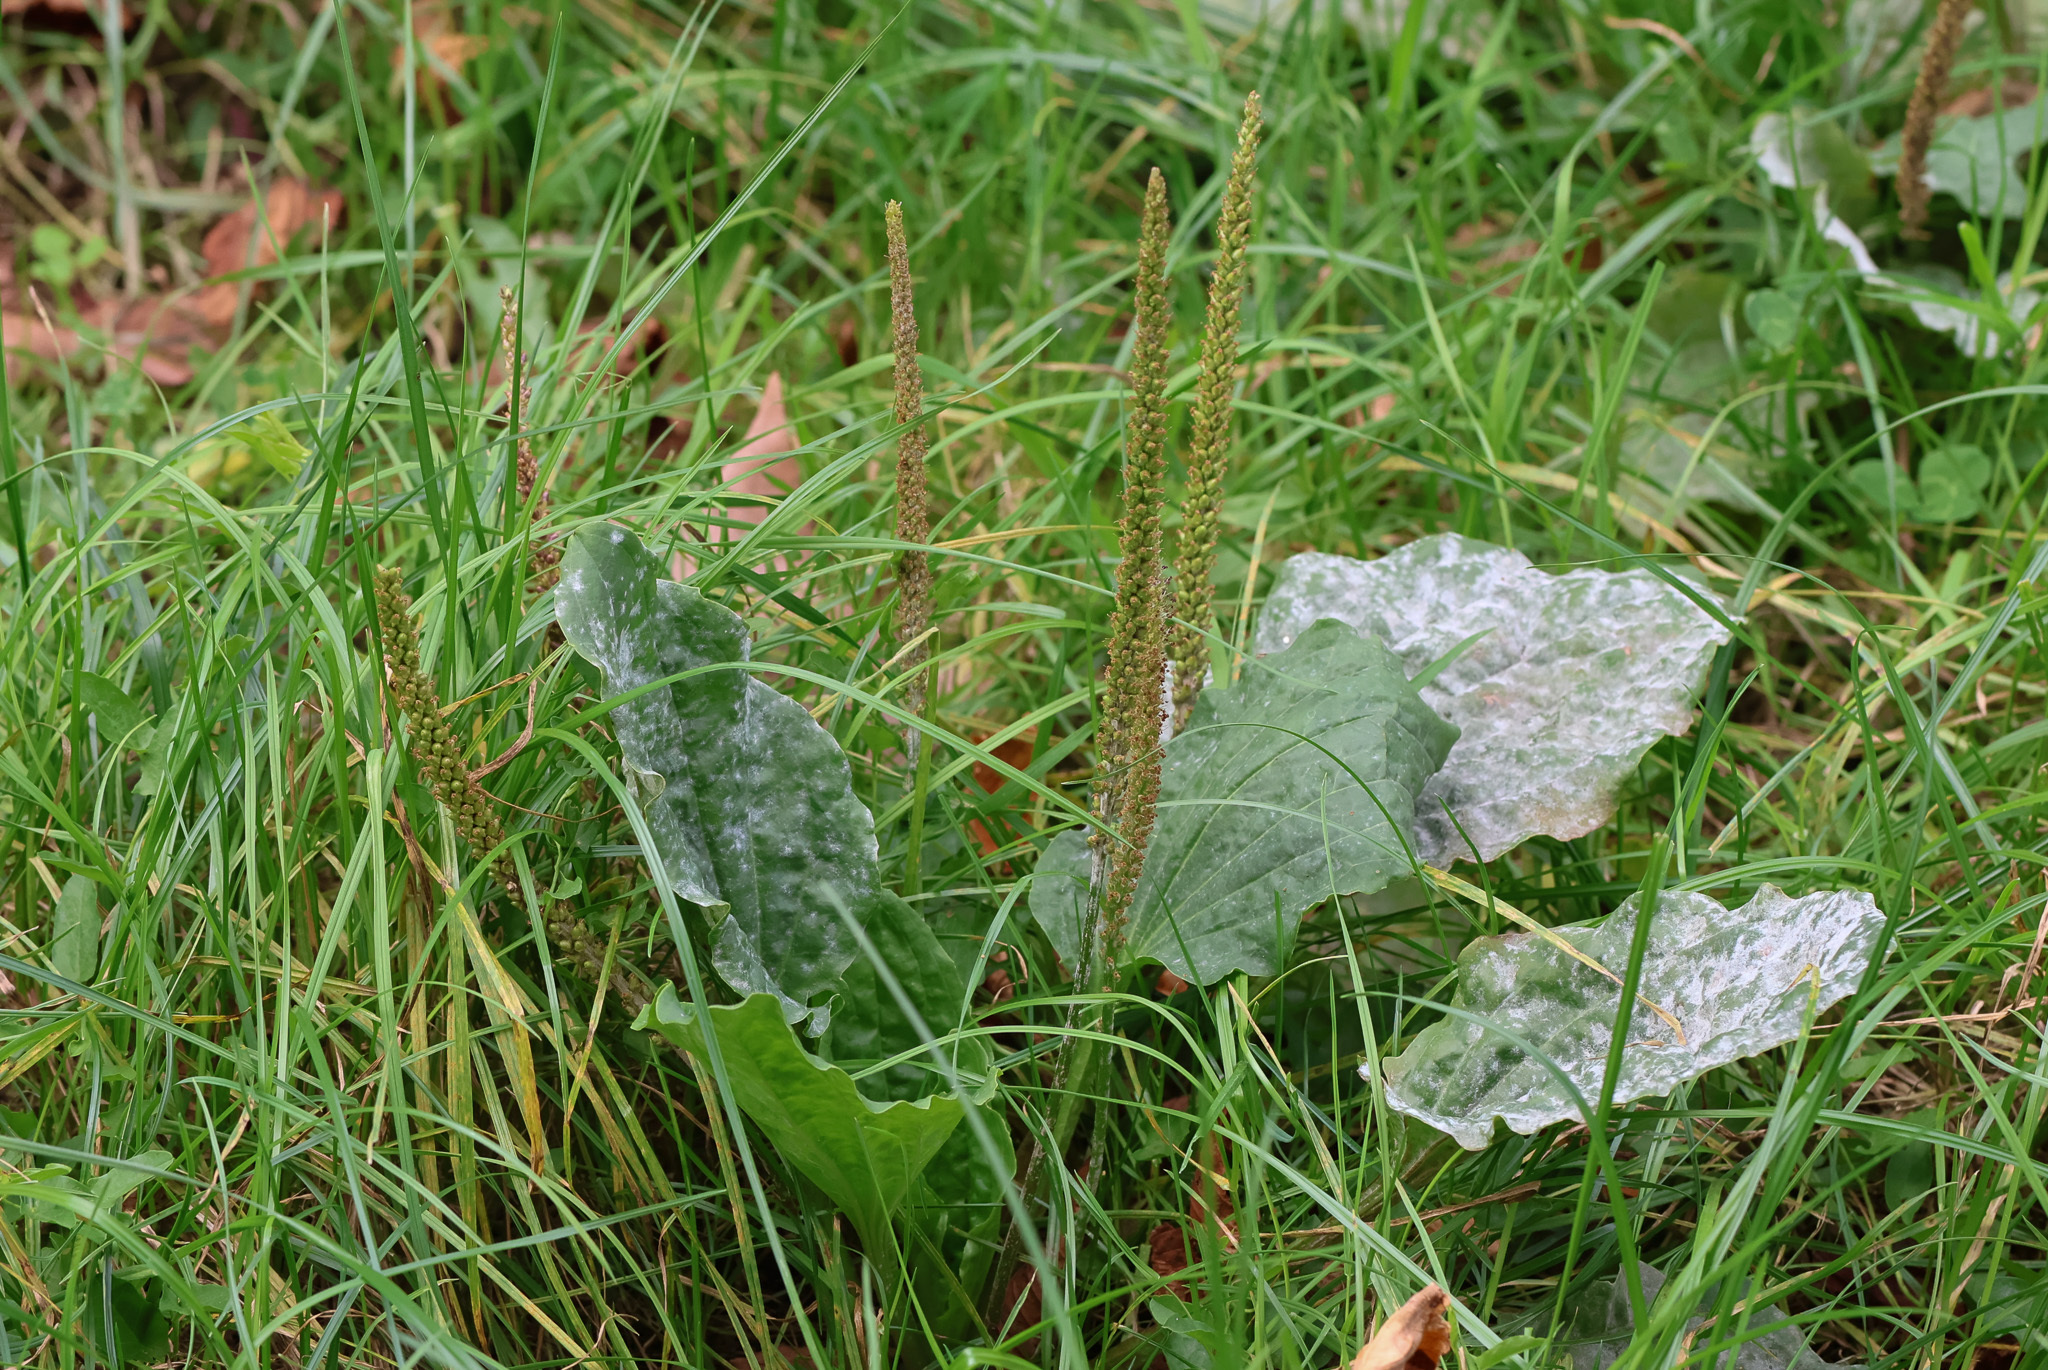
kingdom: Plantae
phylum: Tracheophyta
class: Magnoliopsida
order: Lamiales
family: Plantaginaceae
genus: Plantago
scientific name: Plantago major
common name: Common plantain
